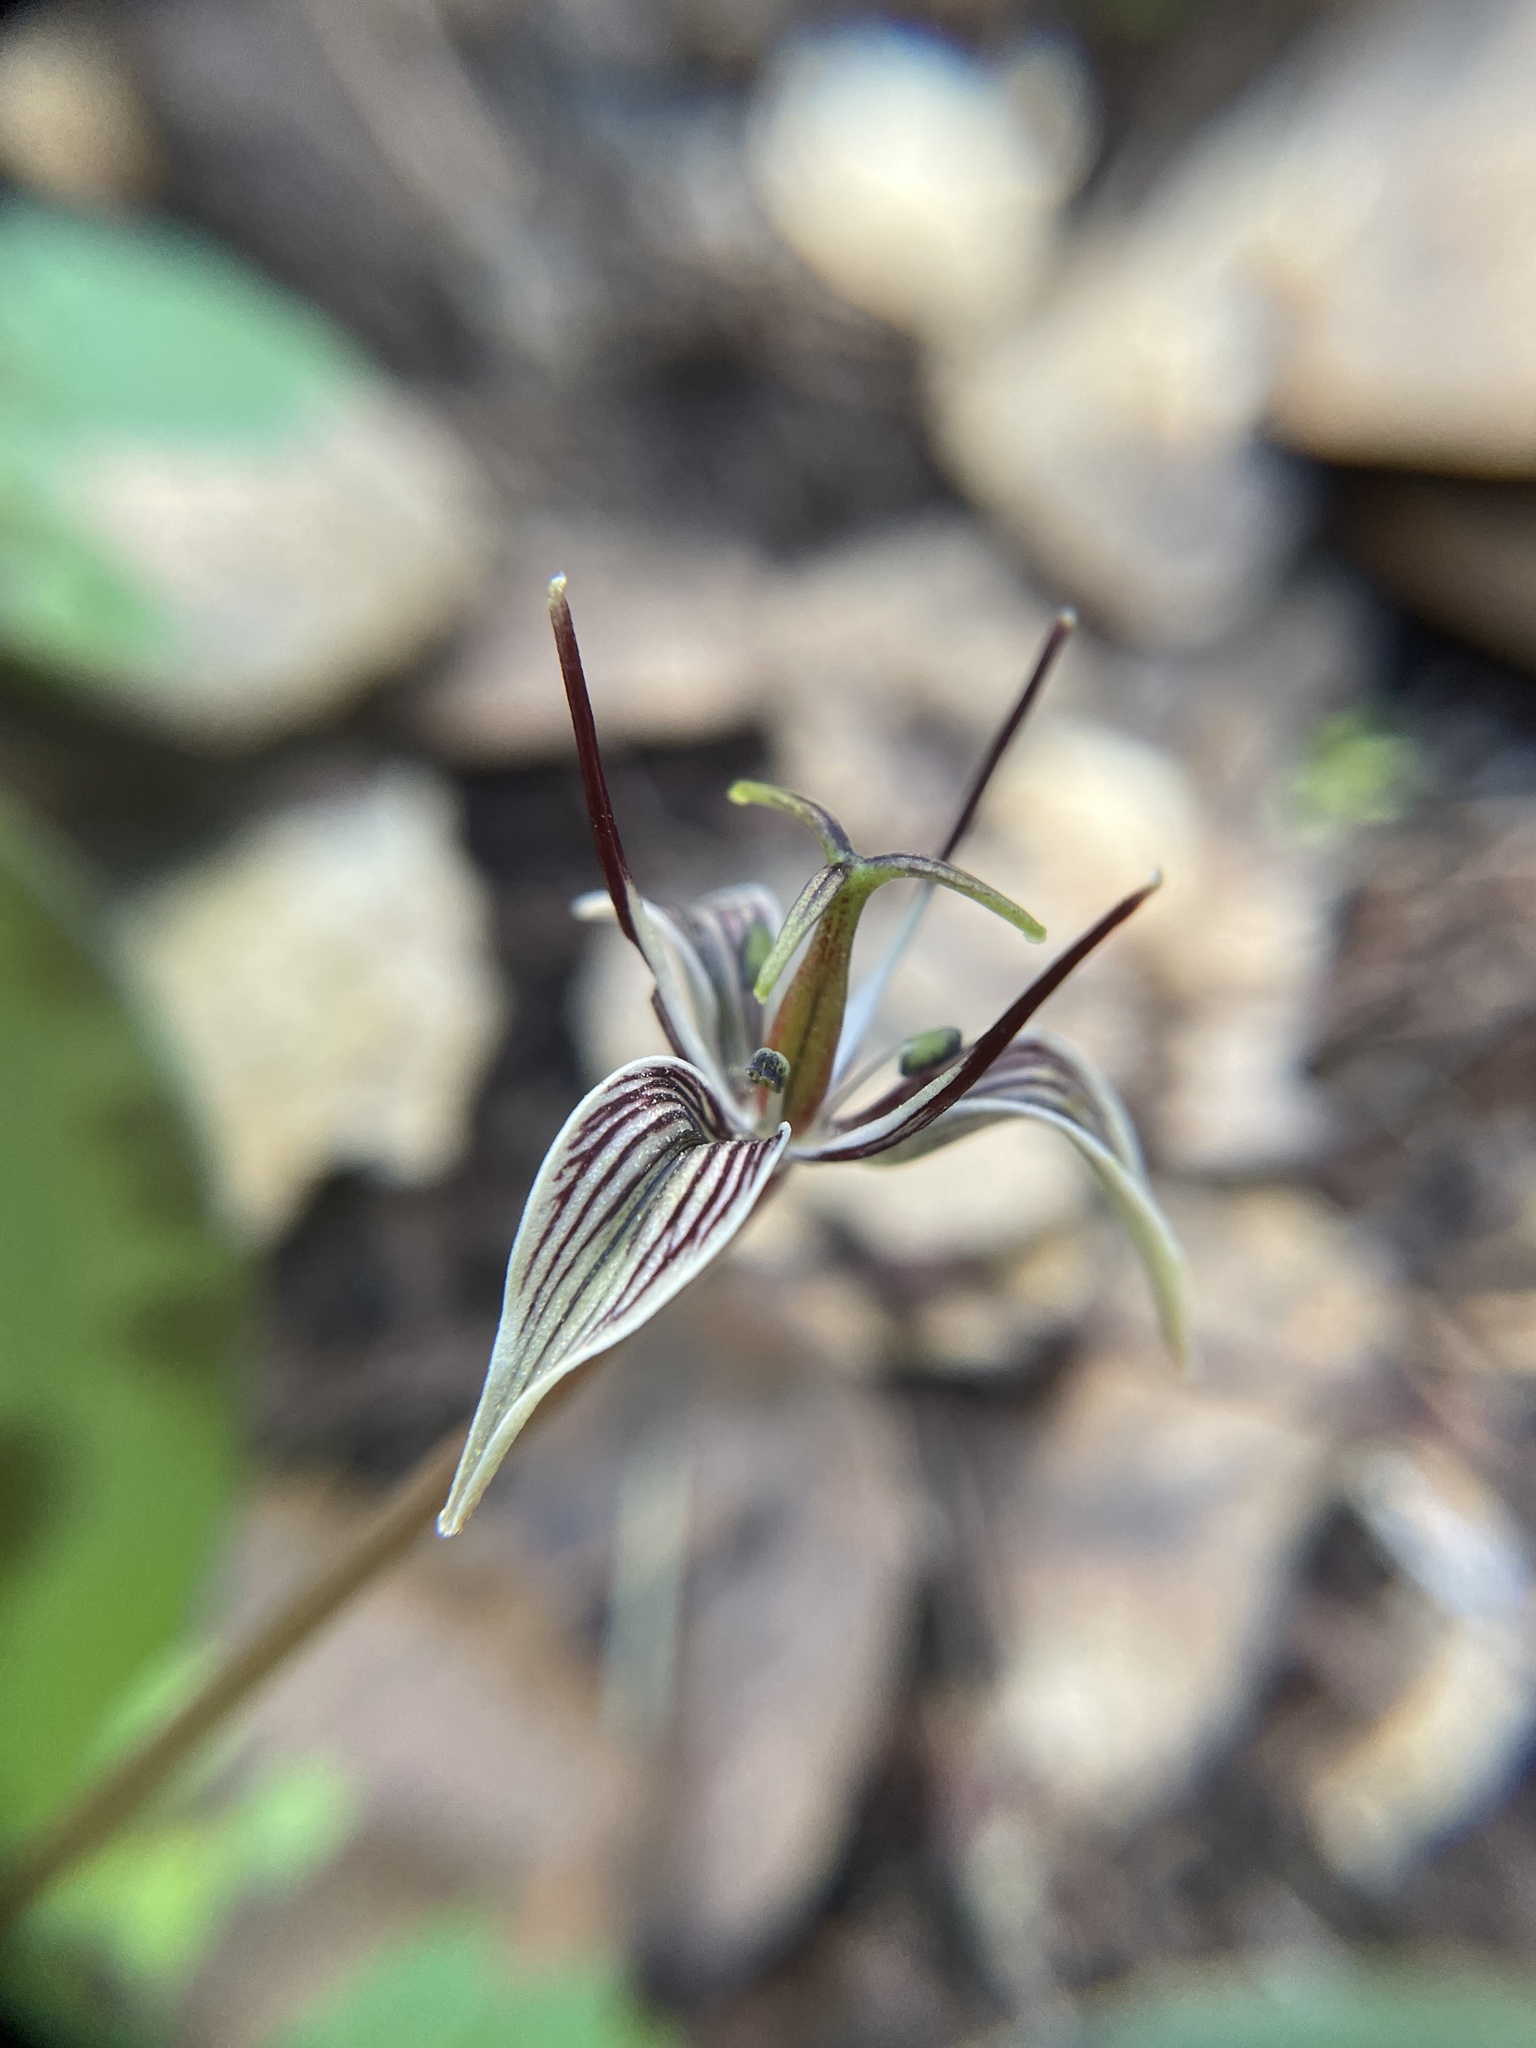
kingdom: Plantae
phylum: Tracheophyta
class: Liliopsida
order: Liliales
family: Liliaceae
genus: Scoliopus
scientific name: Scoliopus bigelovii
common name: Foetid adder's-tongue
